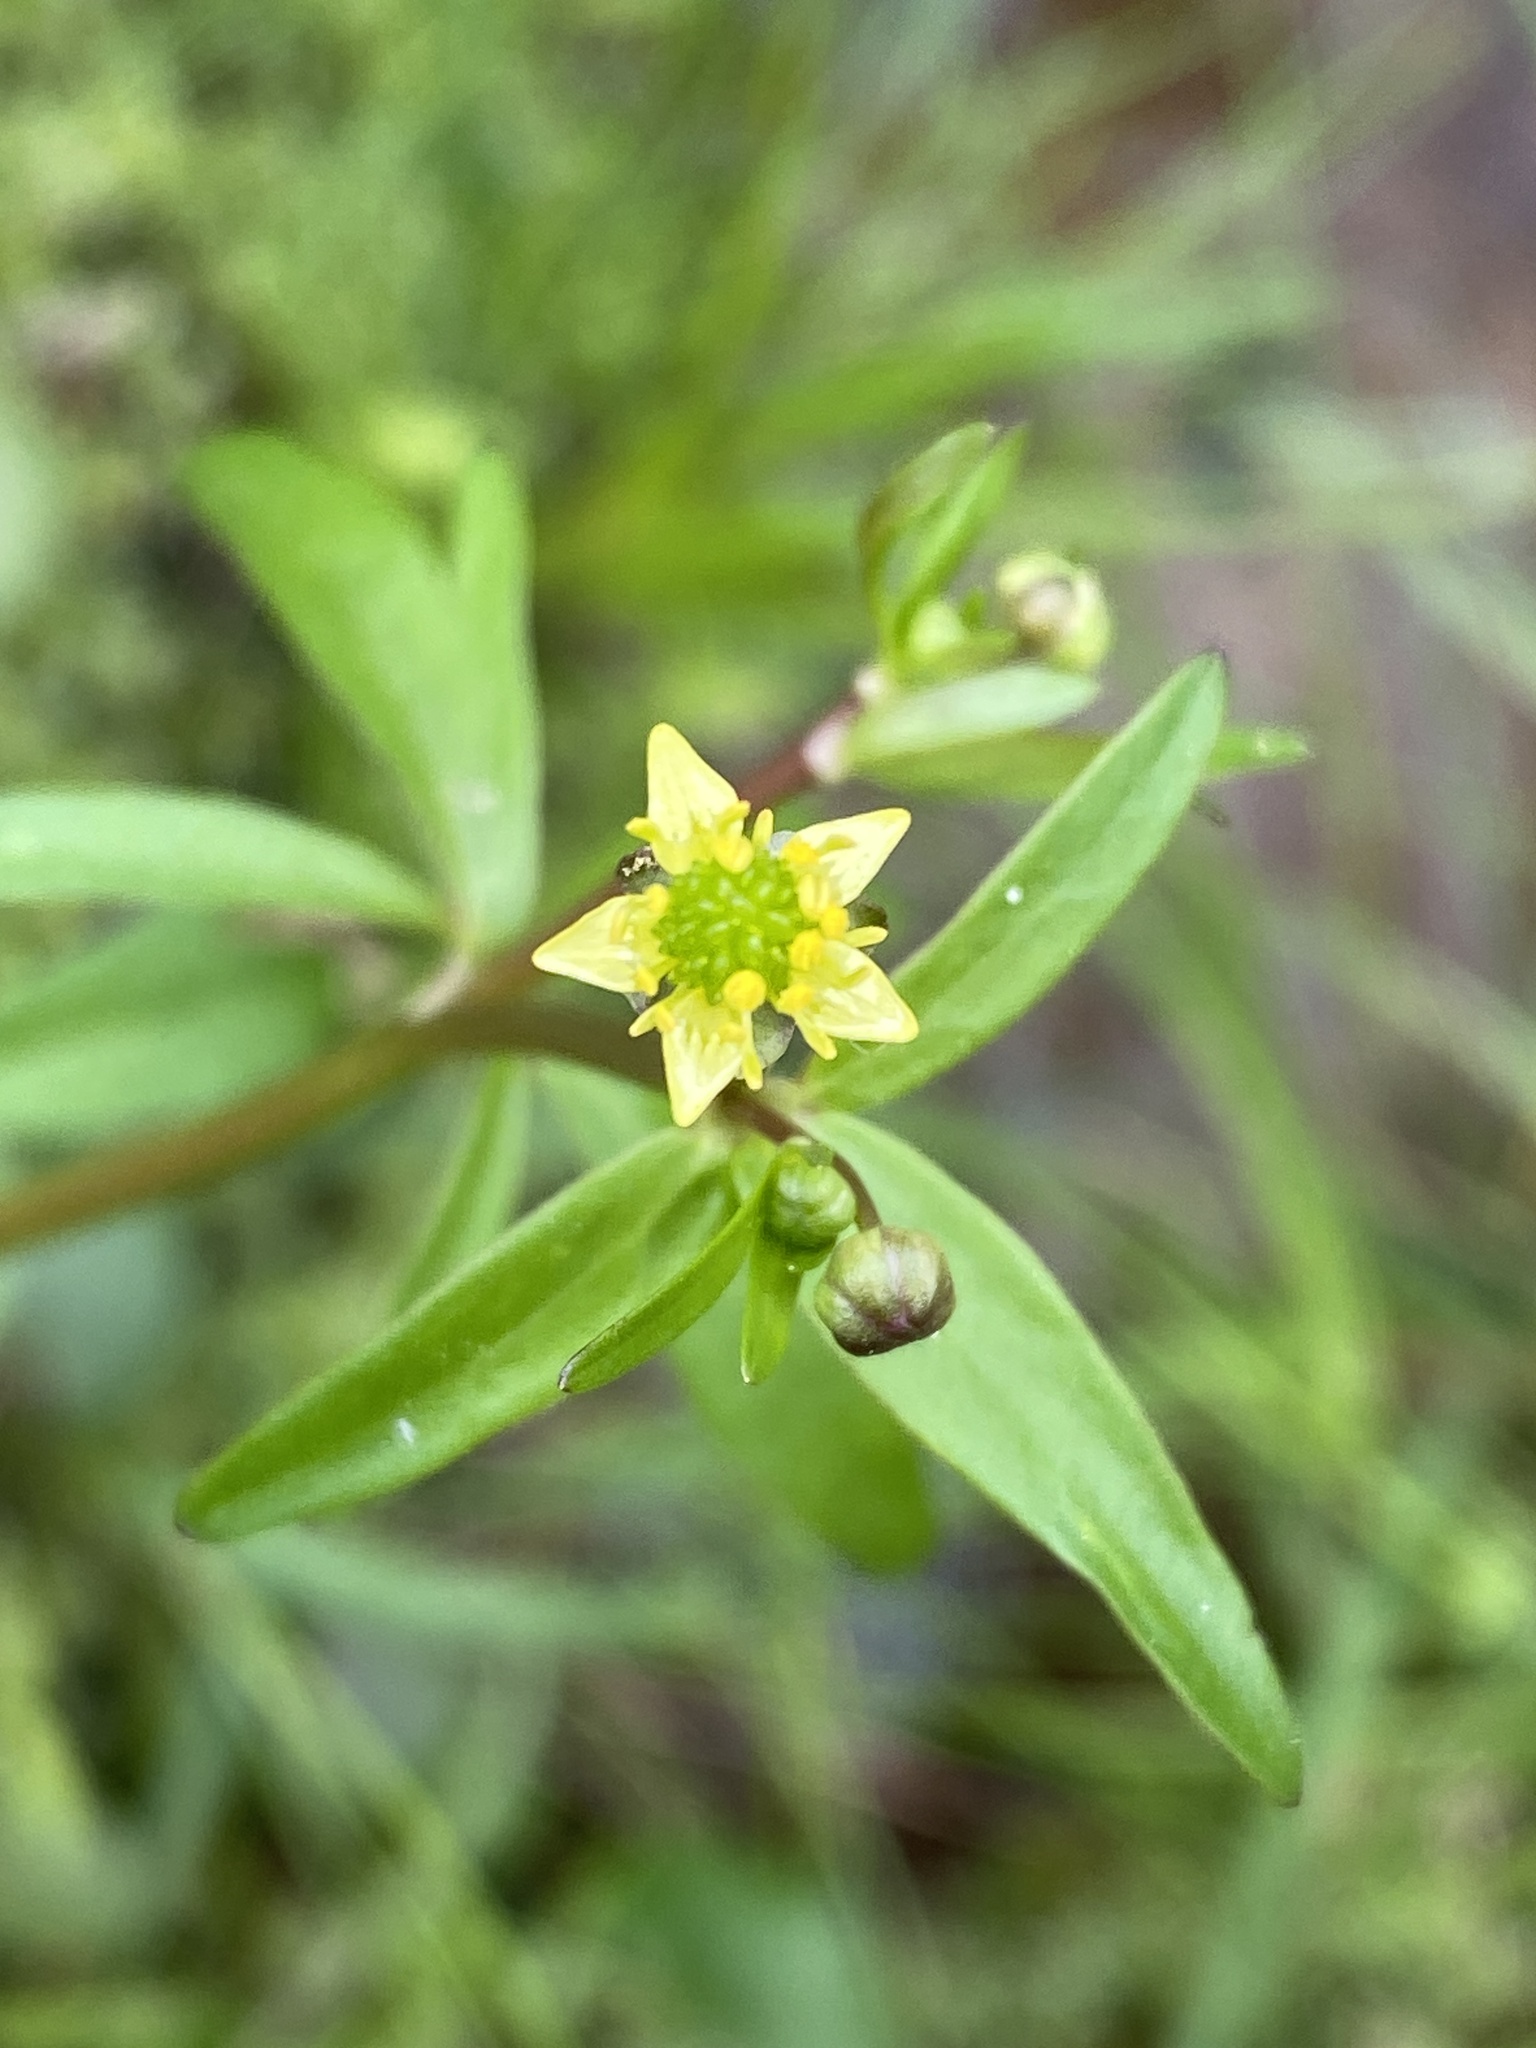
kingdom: Plantae
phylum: Tracheophyta
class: Magnoliopsida
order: Ranunculales
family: Ranunculaceae
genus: Ranunculus
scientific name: Ranunculus abortivus
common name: Early wood buttercup
